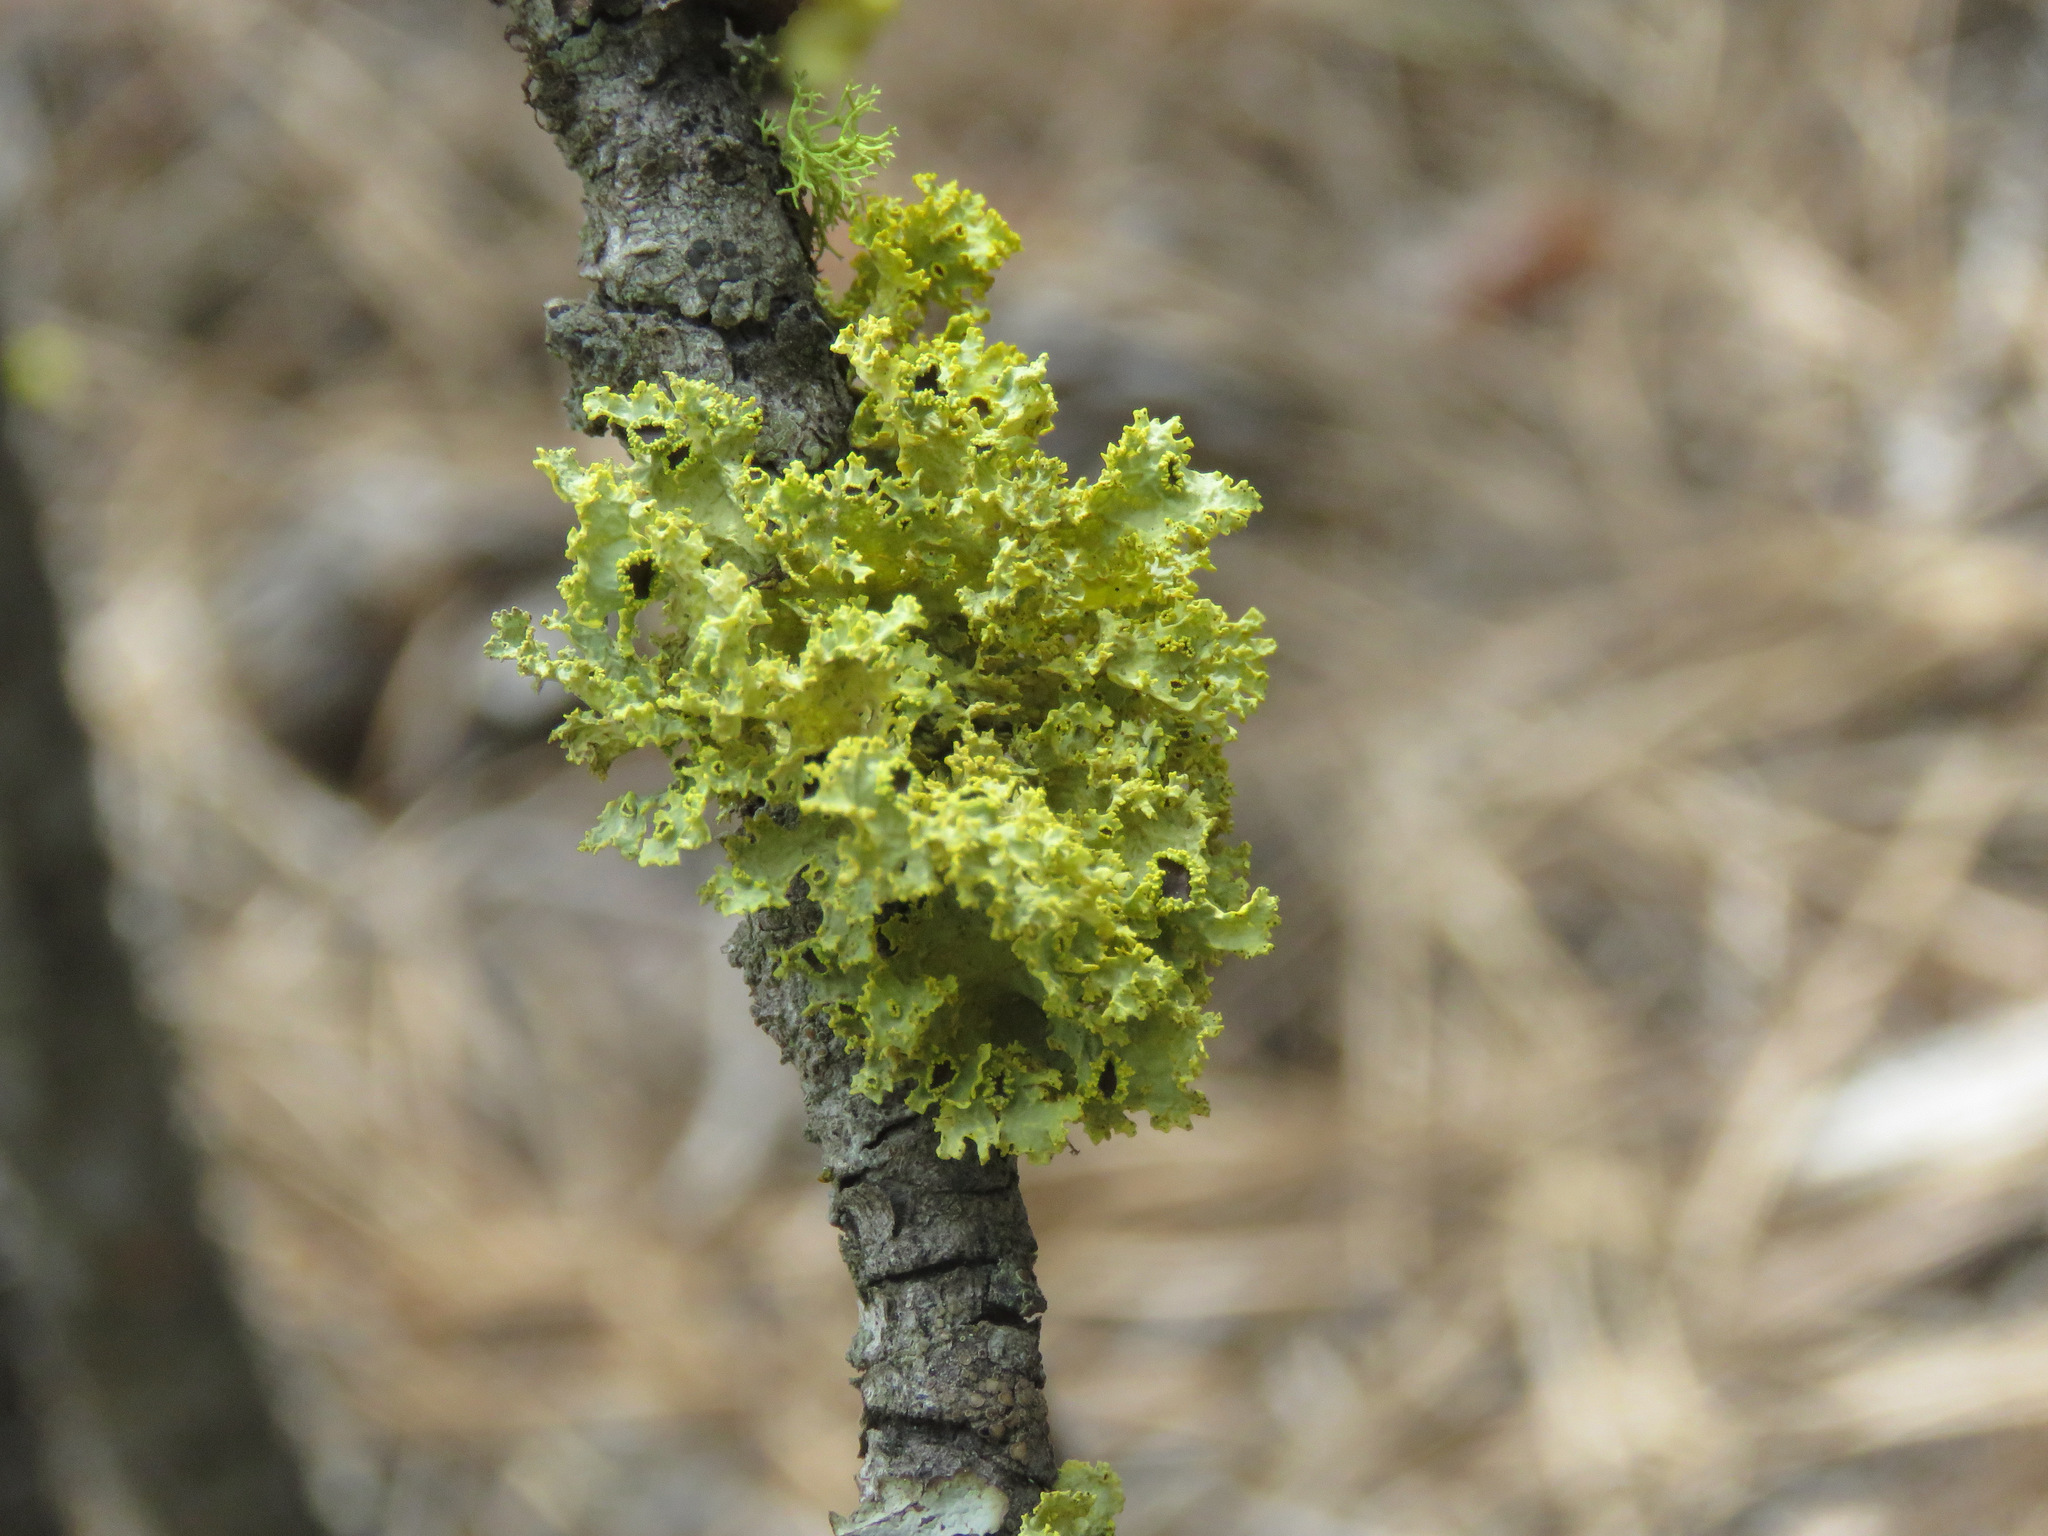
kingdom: Fungi
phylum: Ascomycota
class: Lecanoromycetes
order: Lecanorales
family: Parmeliaceae
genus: Vulpicida
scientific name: Vulpicida canadensis
